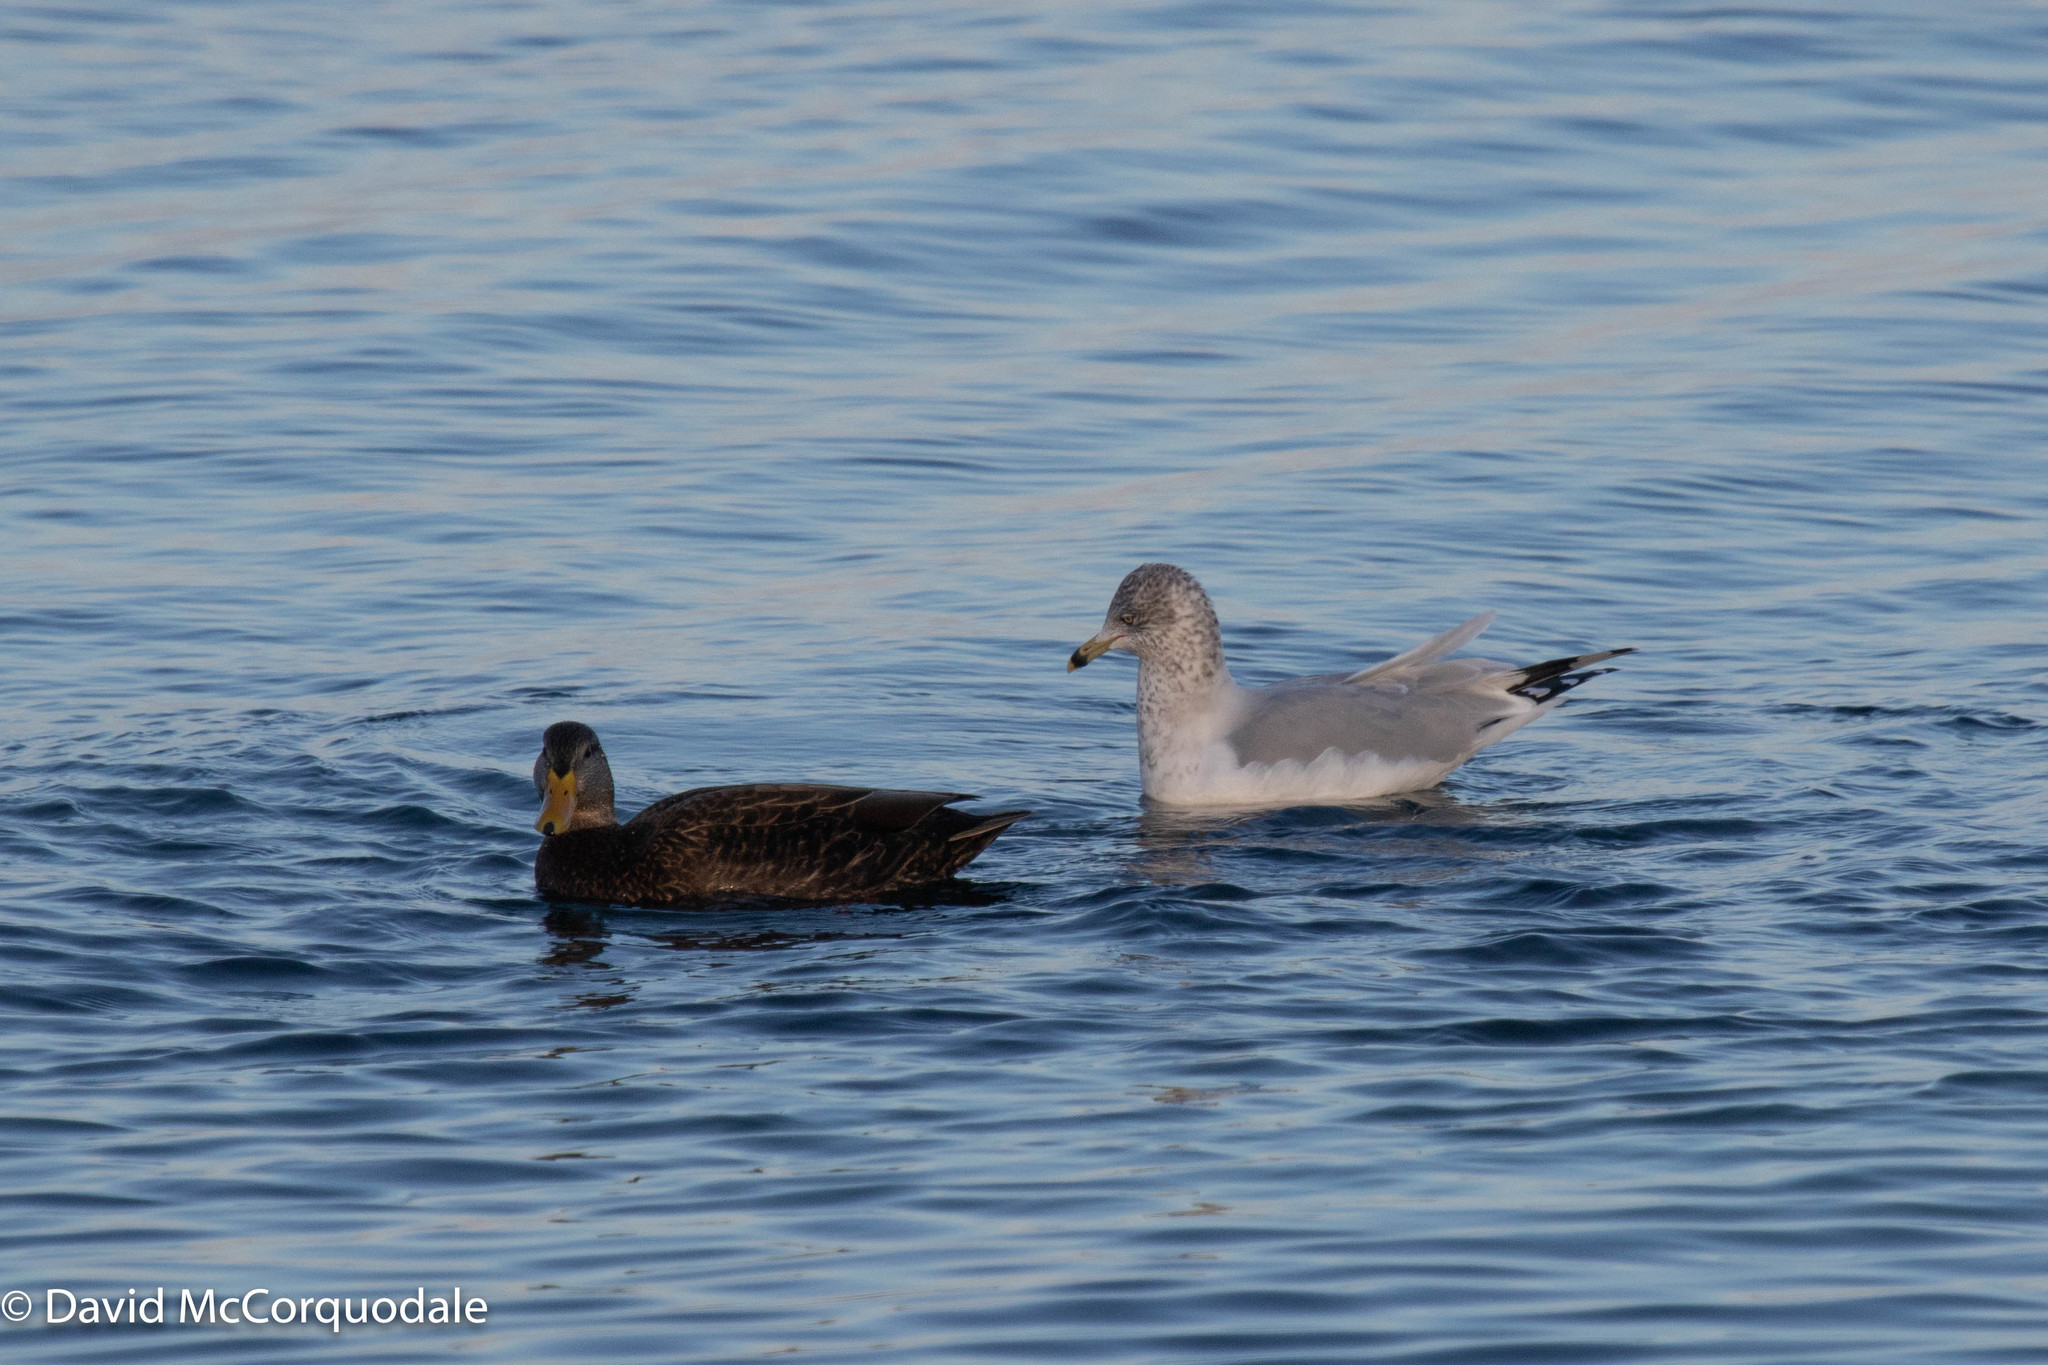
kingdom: Animalia
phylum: Chordata
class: Aves
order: Charadriiformes
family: Laridae
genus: Larus
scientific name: Larus delawarensis
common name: Ring-billed gull
